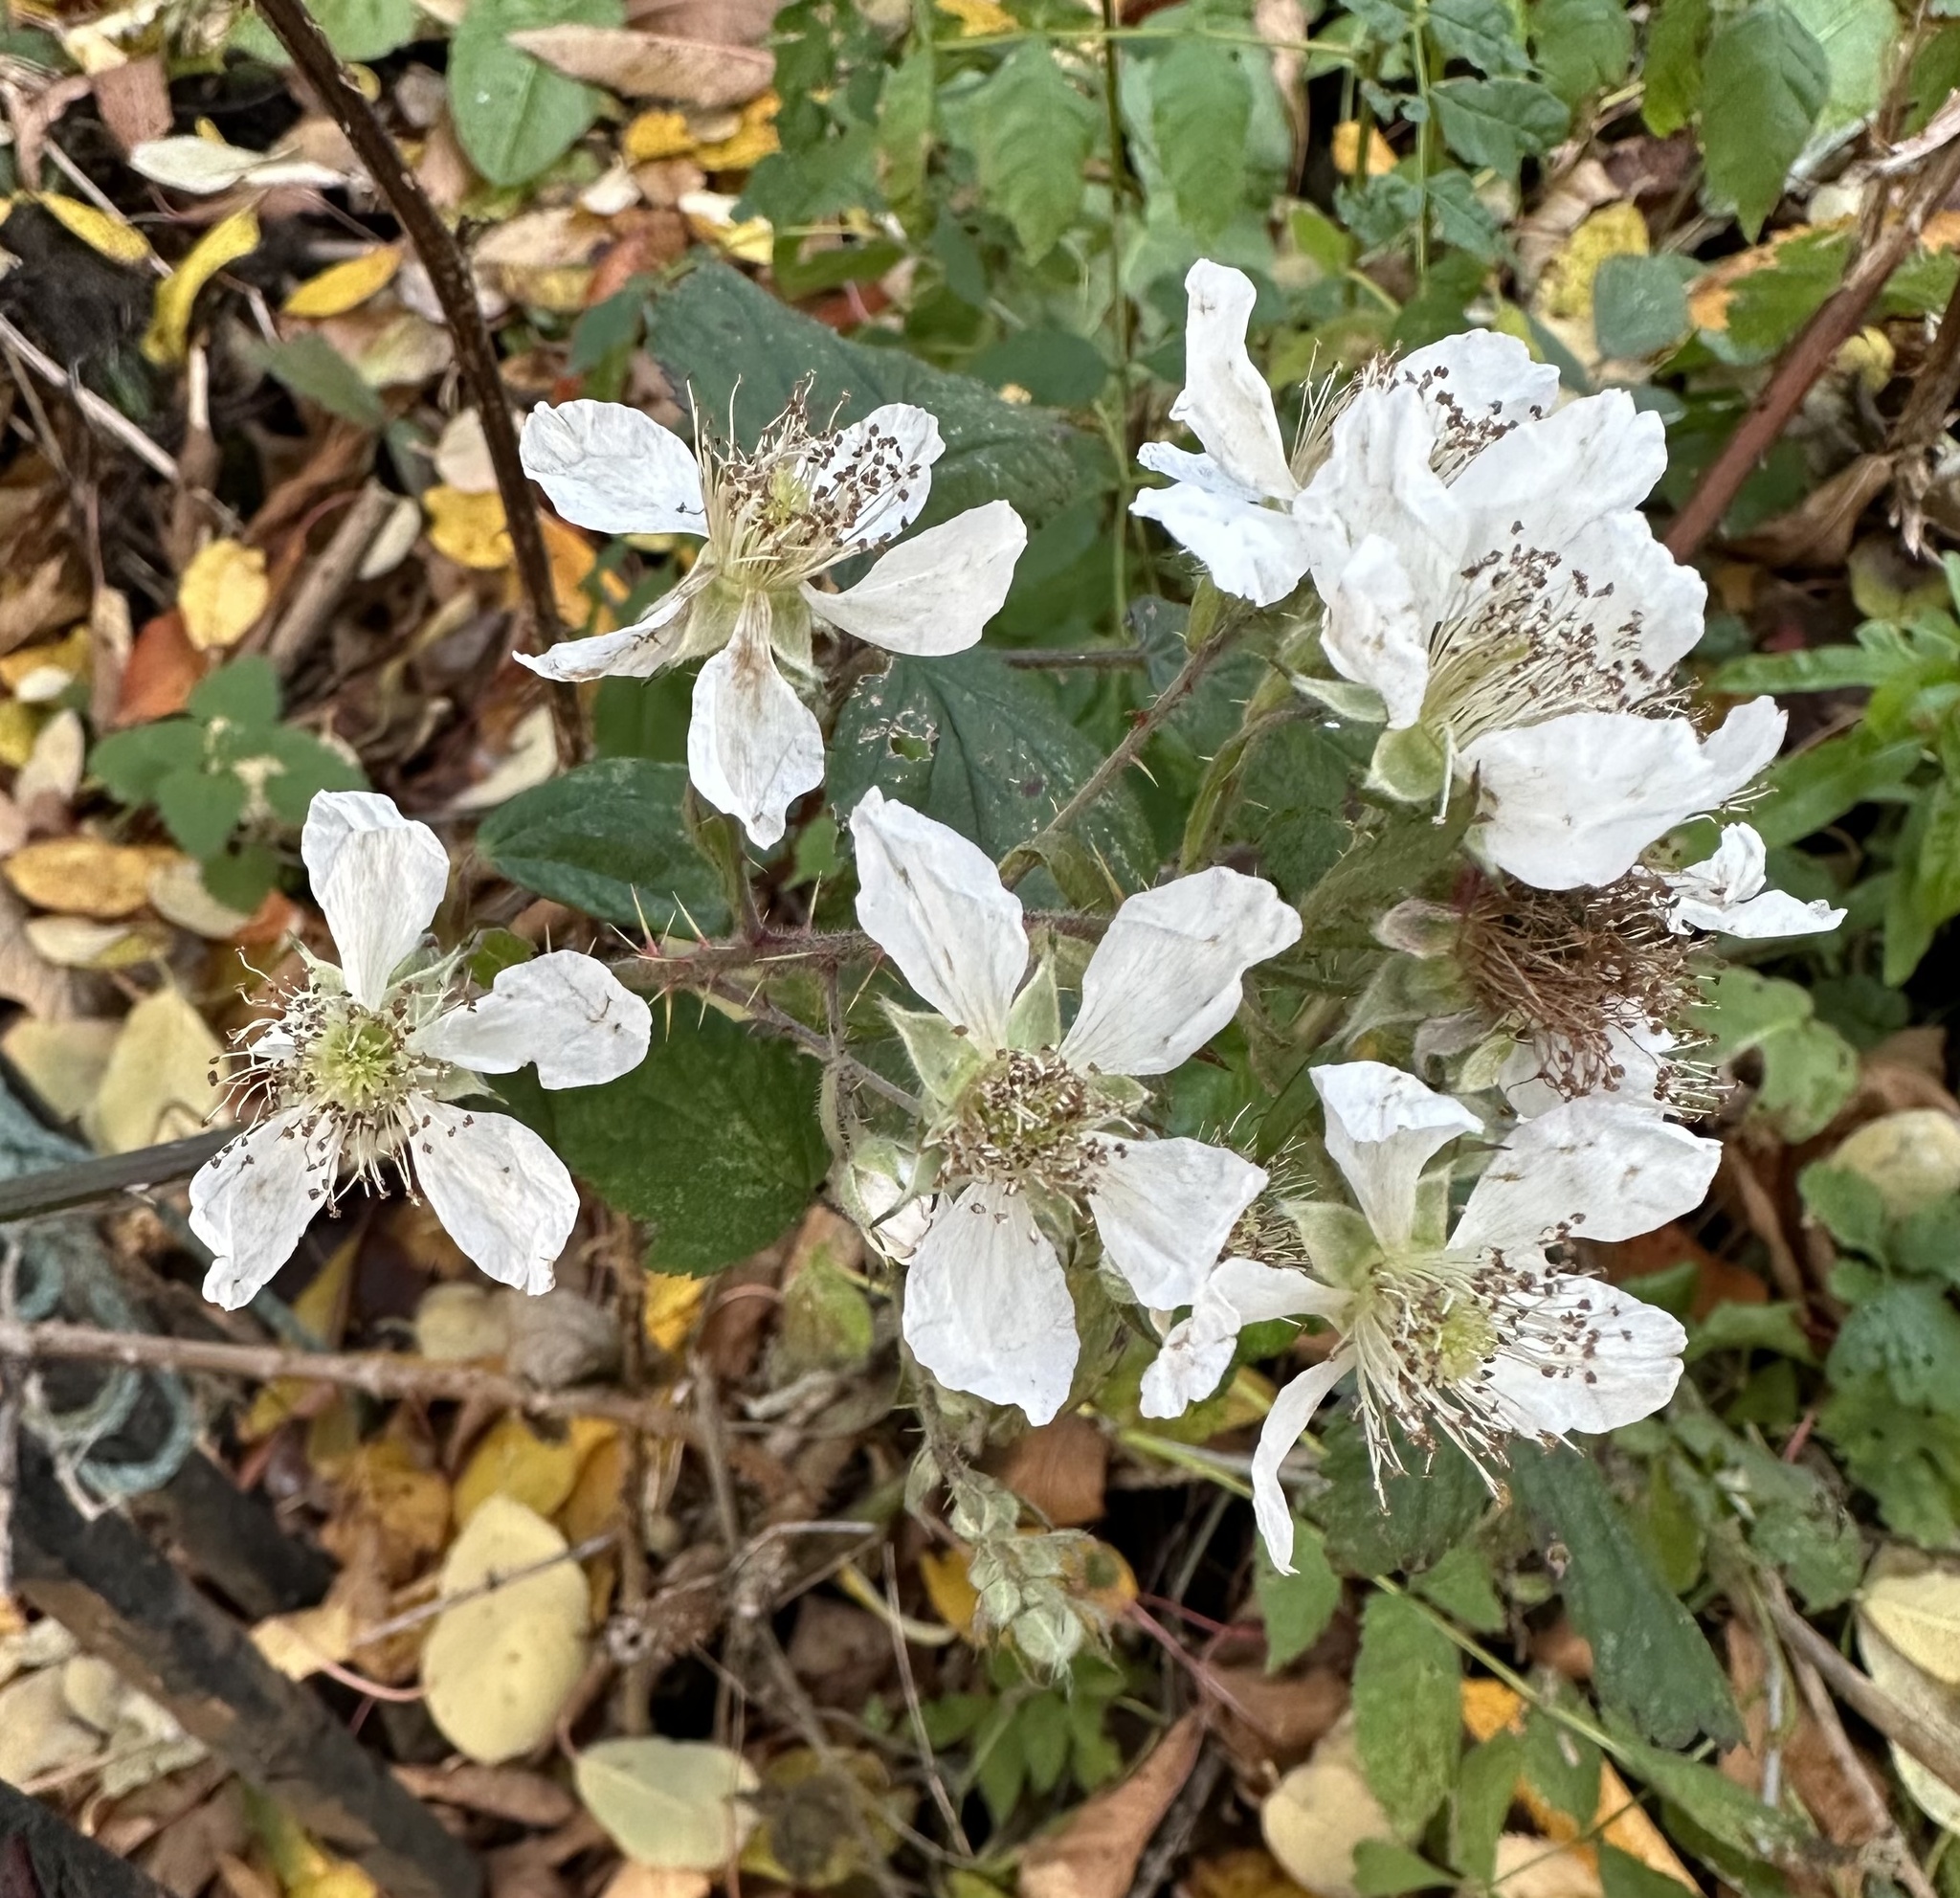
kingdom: Plantae
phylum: Tracheophyta
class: Magnoliopsida
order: Rosales
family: Rosaceae
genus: Rubus
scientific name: Rubus fruticosus
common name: Blackberry, bramble
